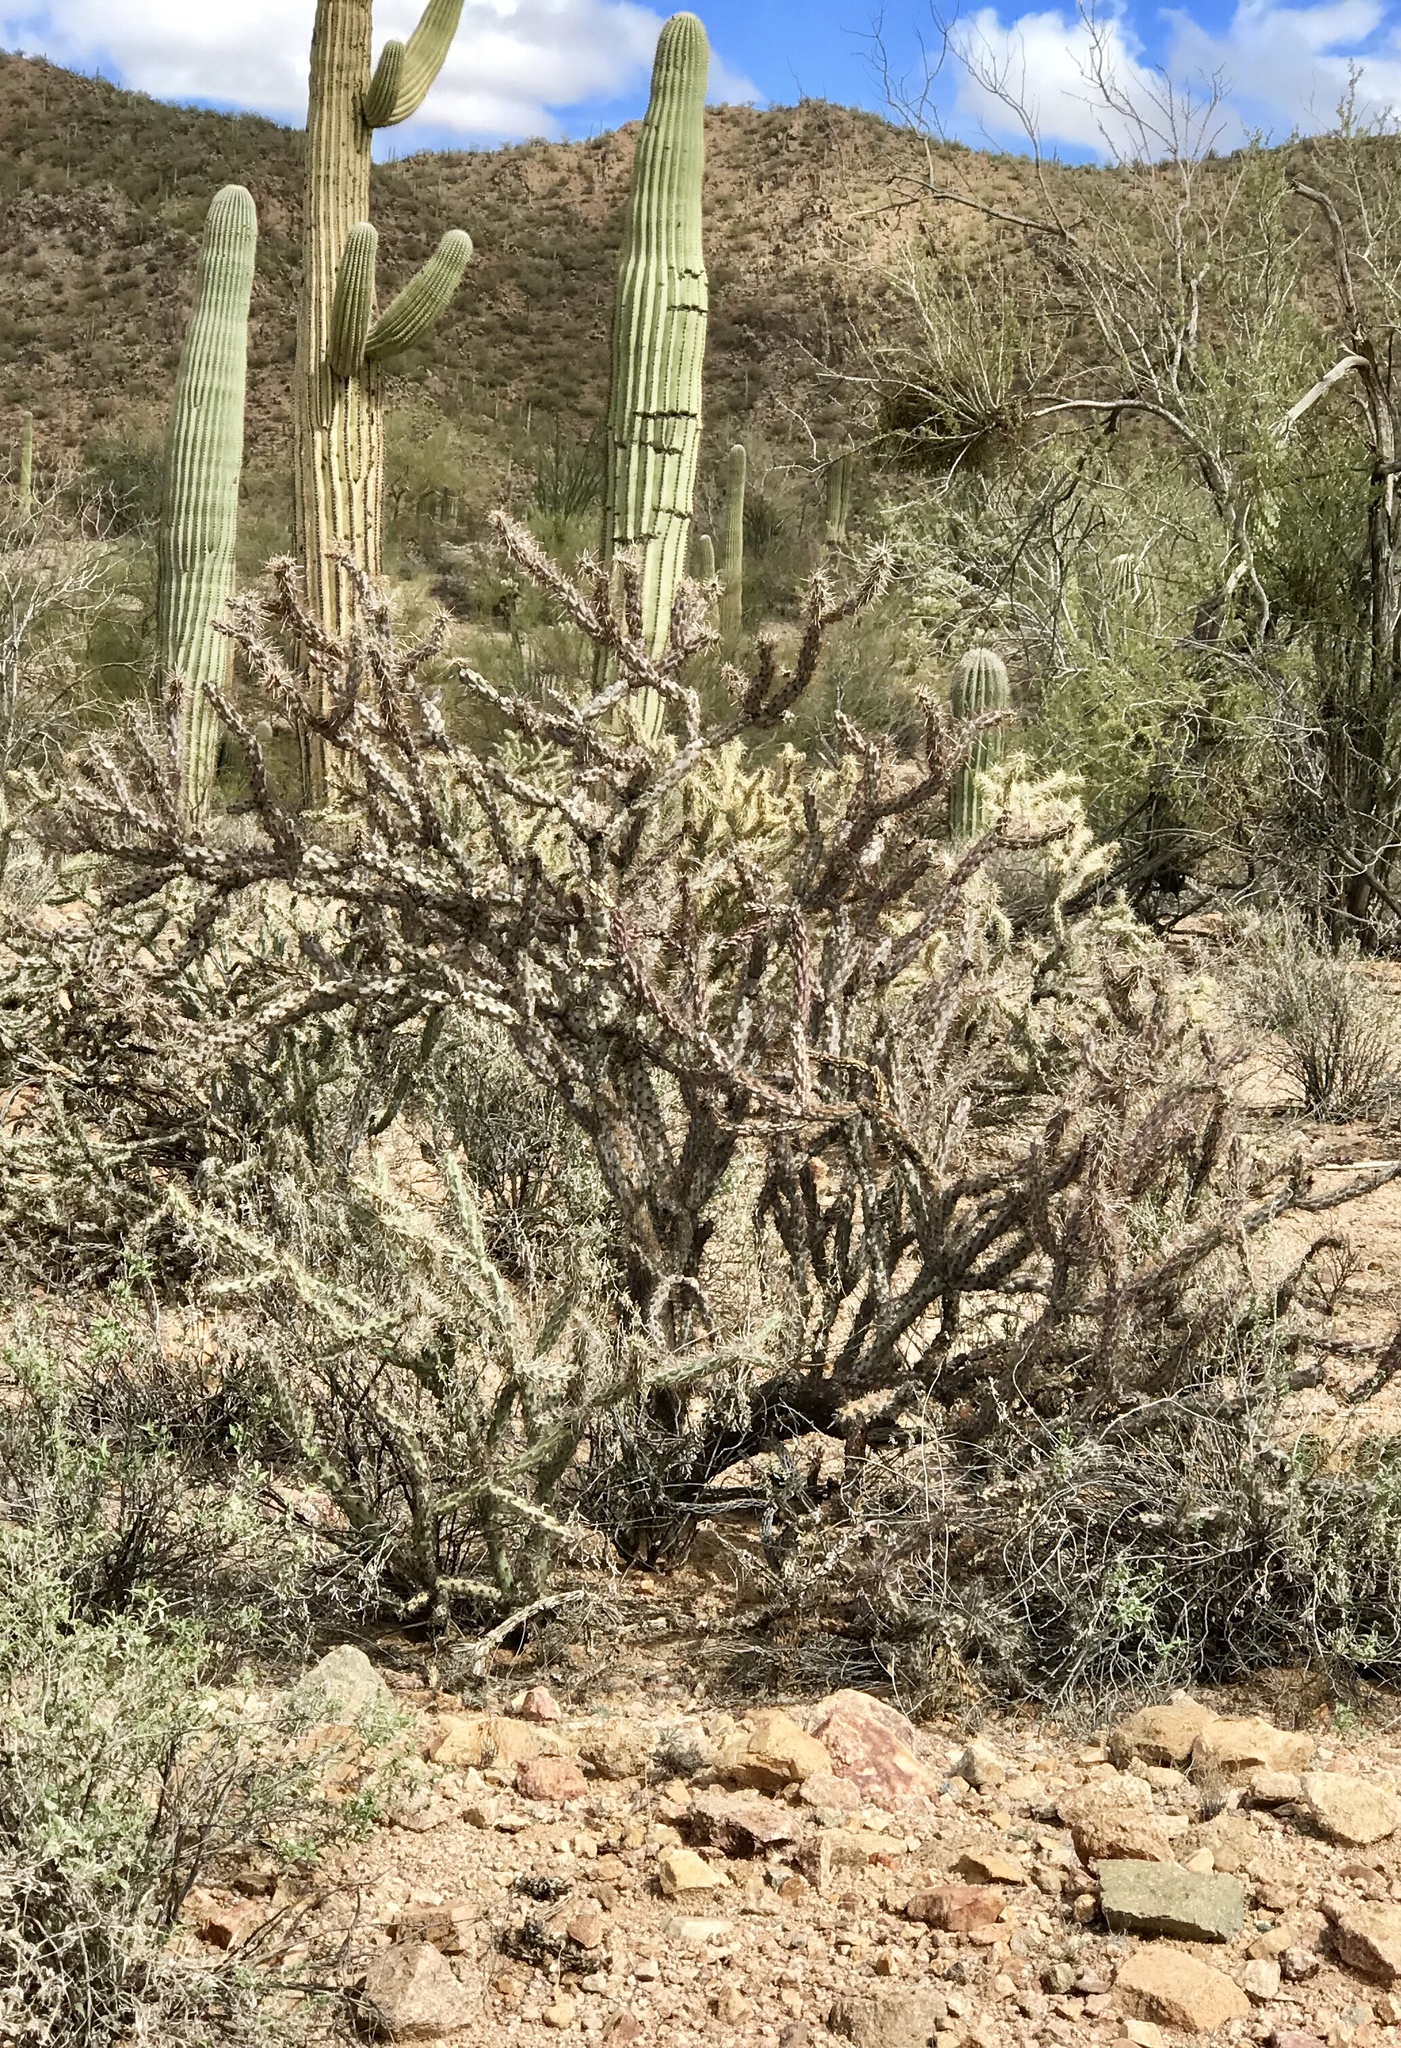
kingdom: Plantae
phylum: Tracheophyta
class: Magnoliopsida
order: Caryophyllales
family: Cactaceae
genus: Cylindropuntia
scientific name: Cylindropuntia thurberi
